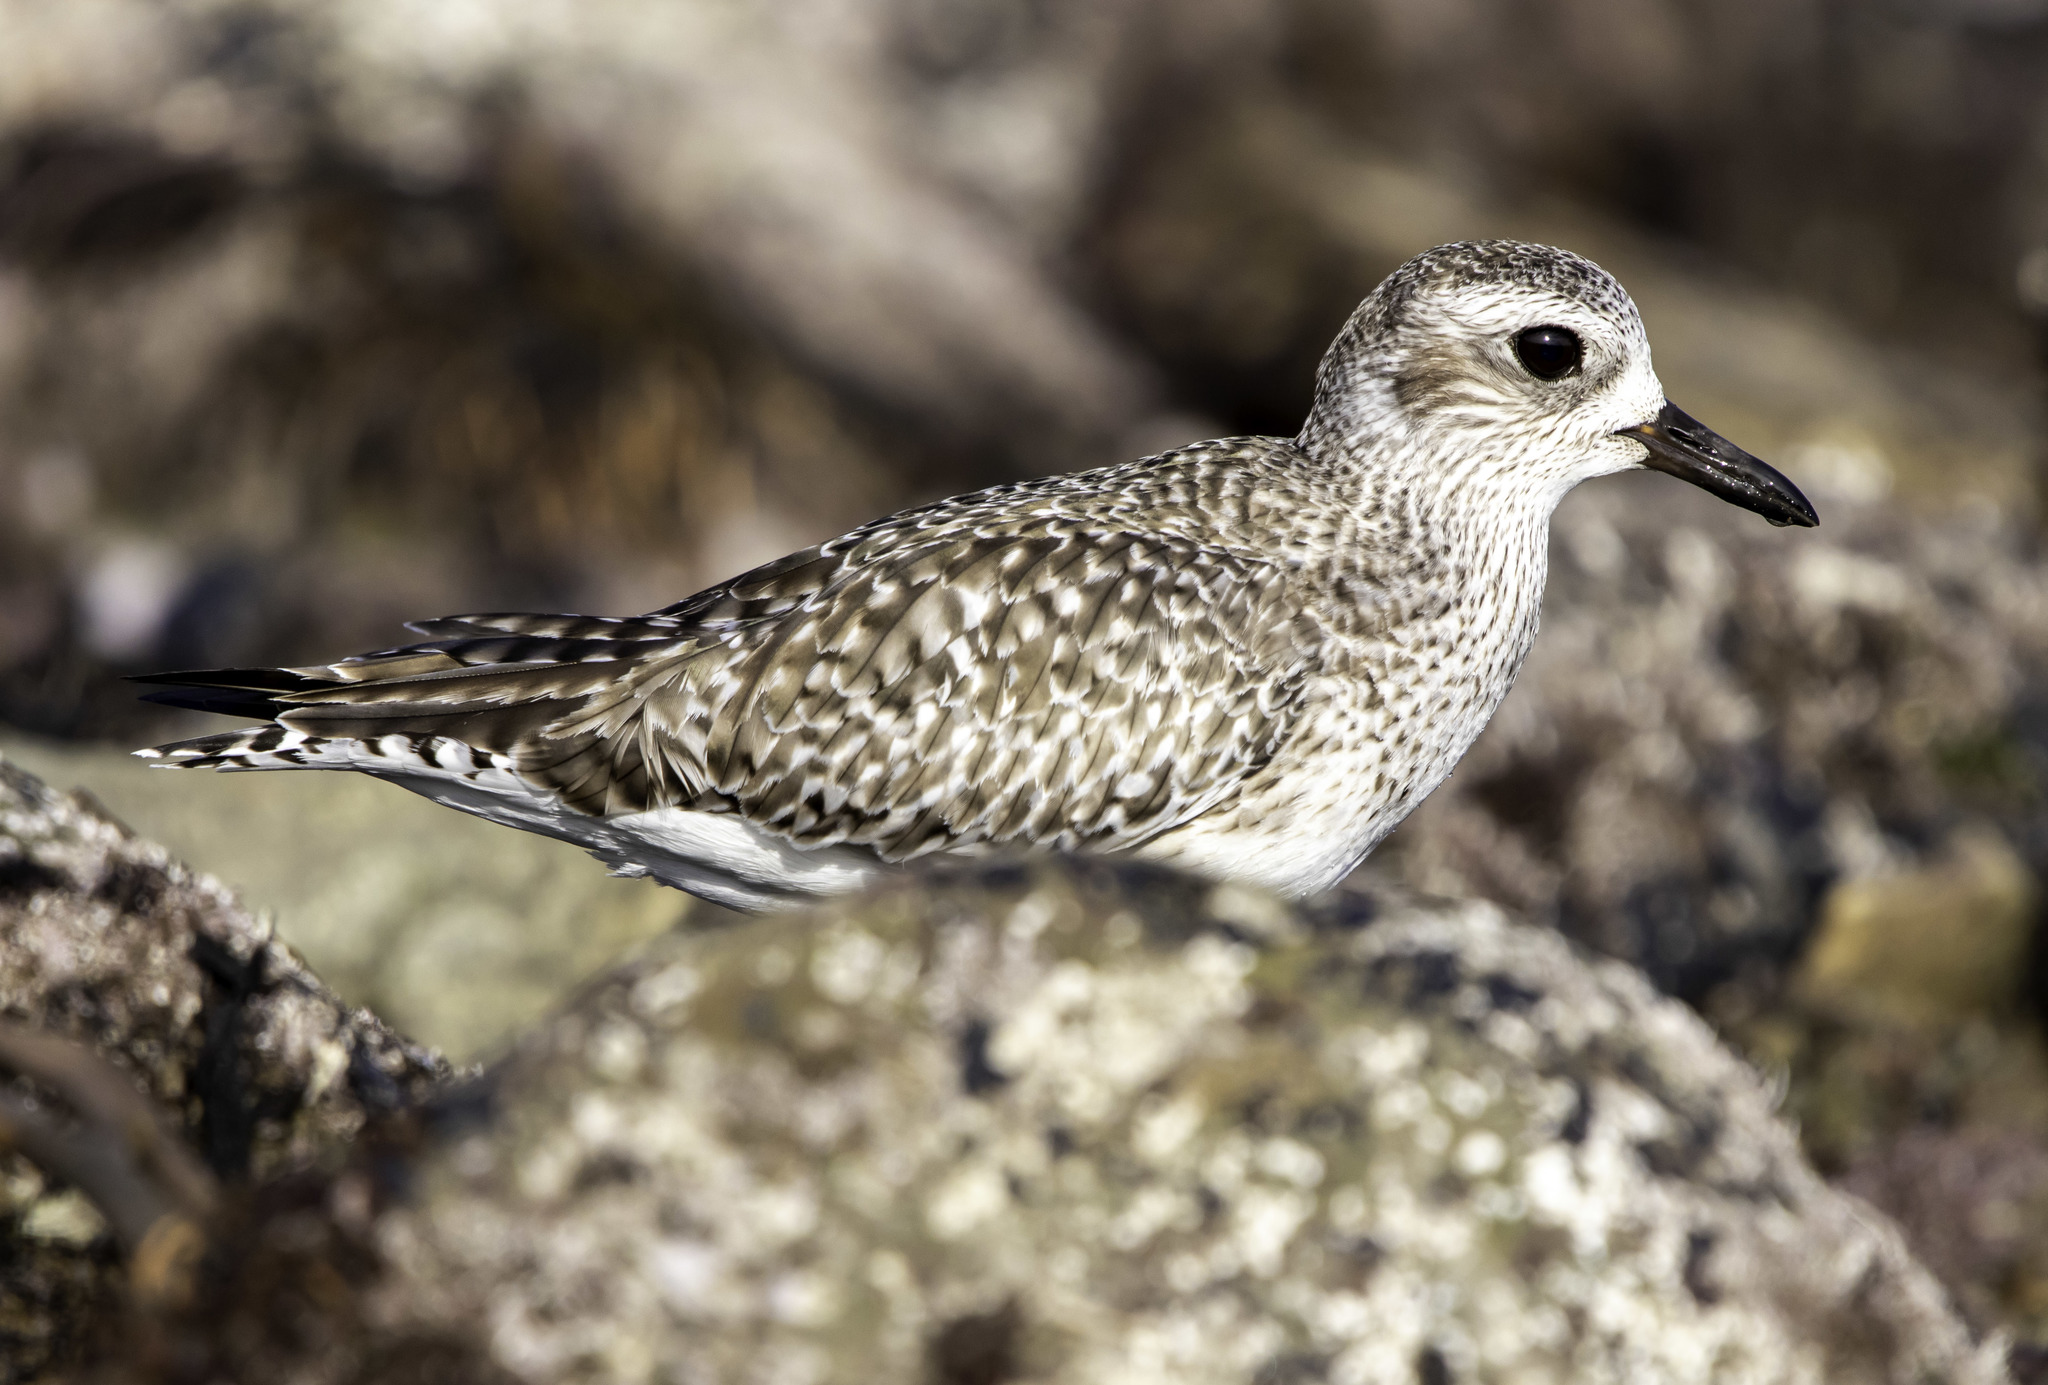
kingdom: Animalia
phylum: Chordata
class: Aves
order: Charadriiformes
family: Charadriidae
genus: Pluvialis
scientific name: Pluvialis squatarola
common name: Grey plover
